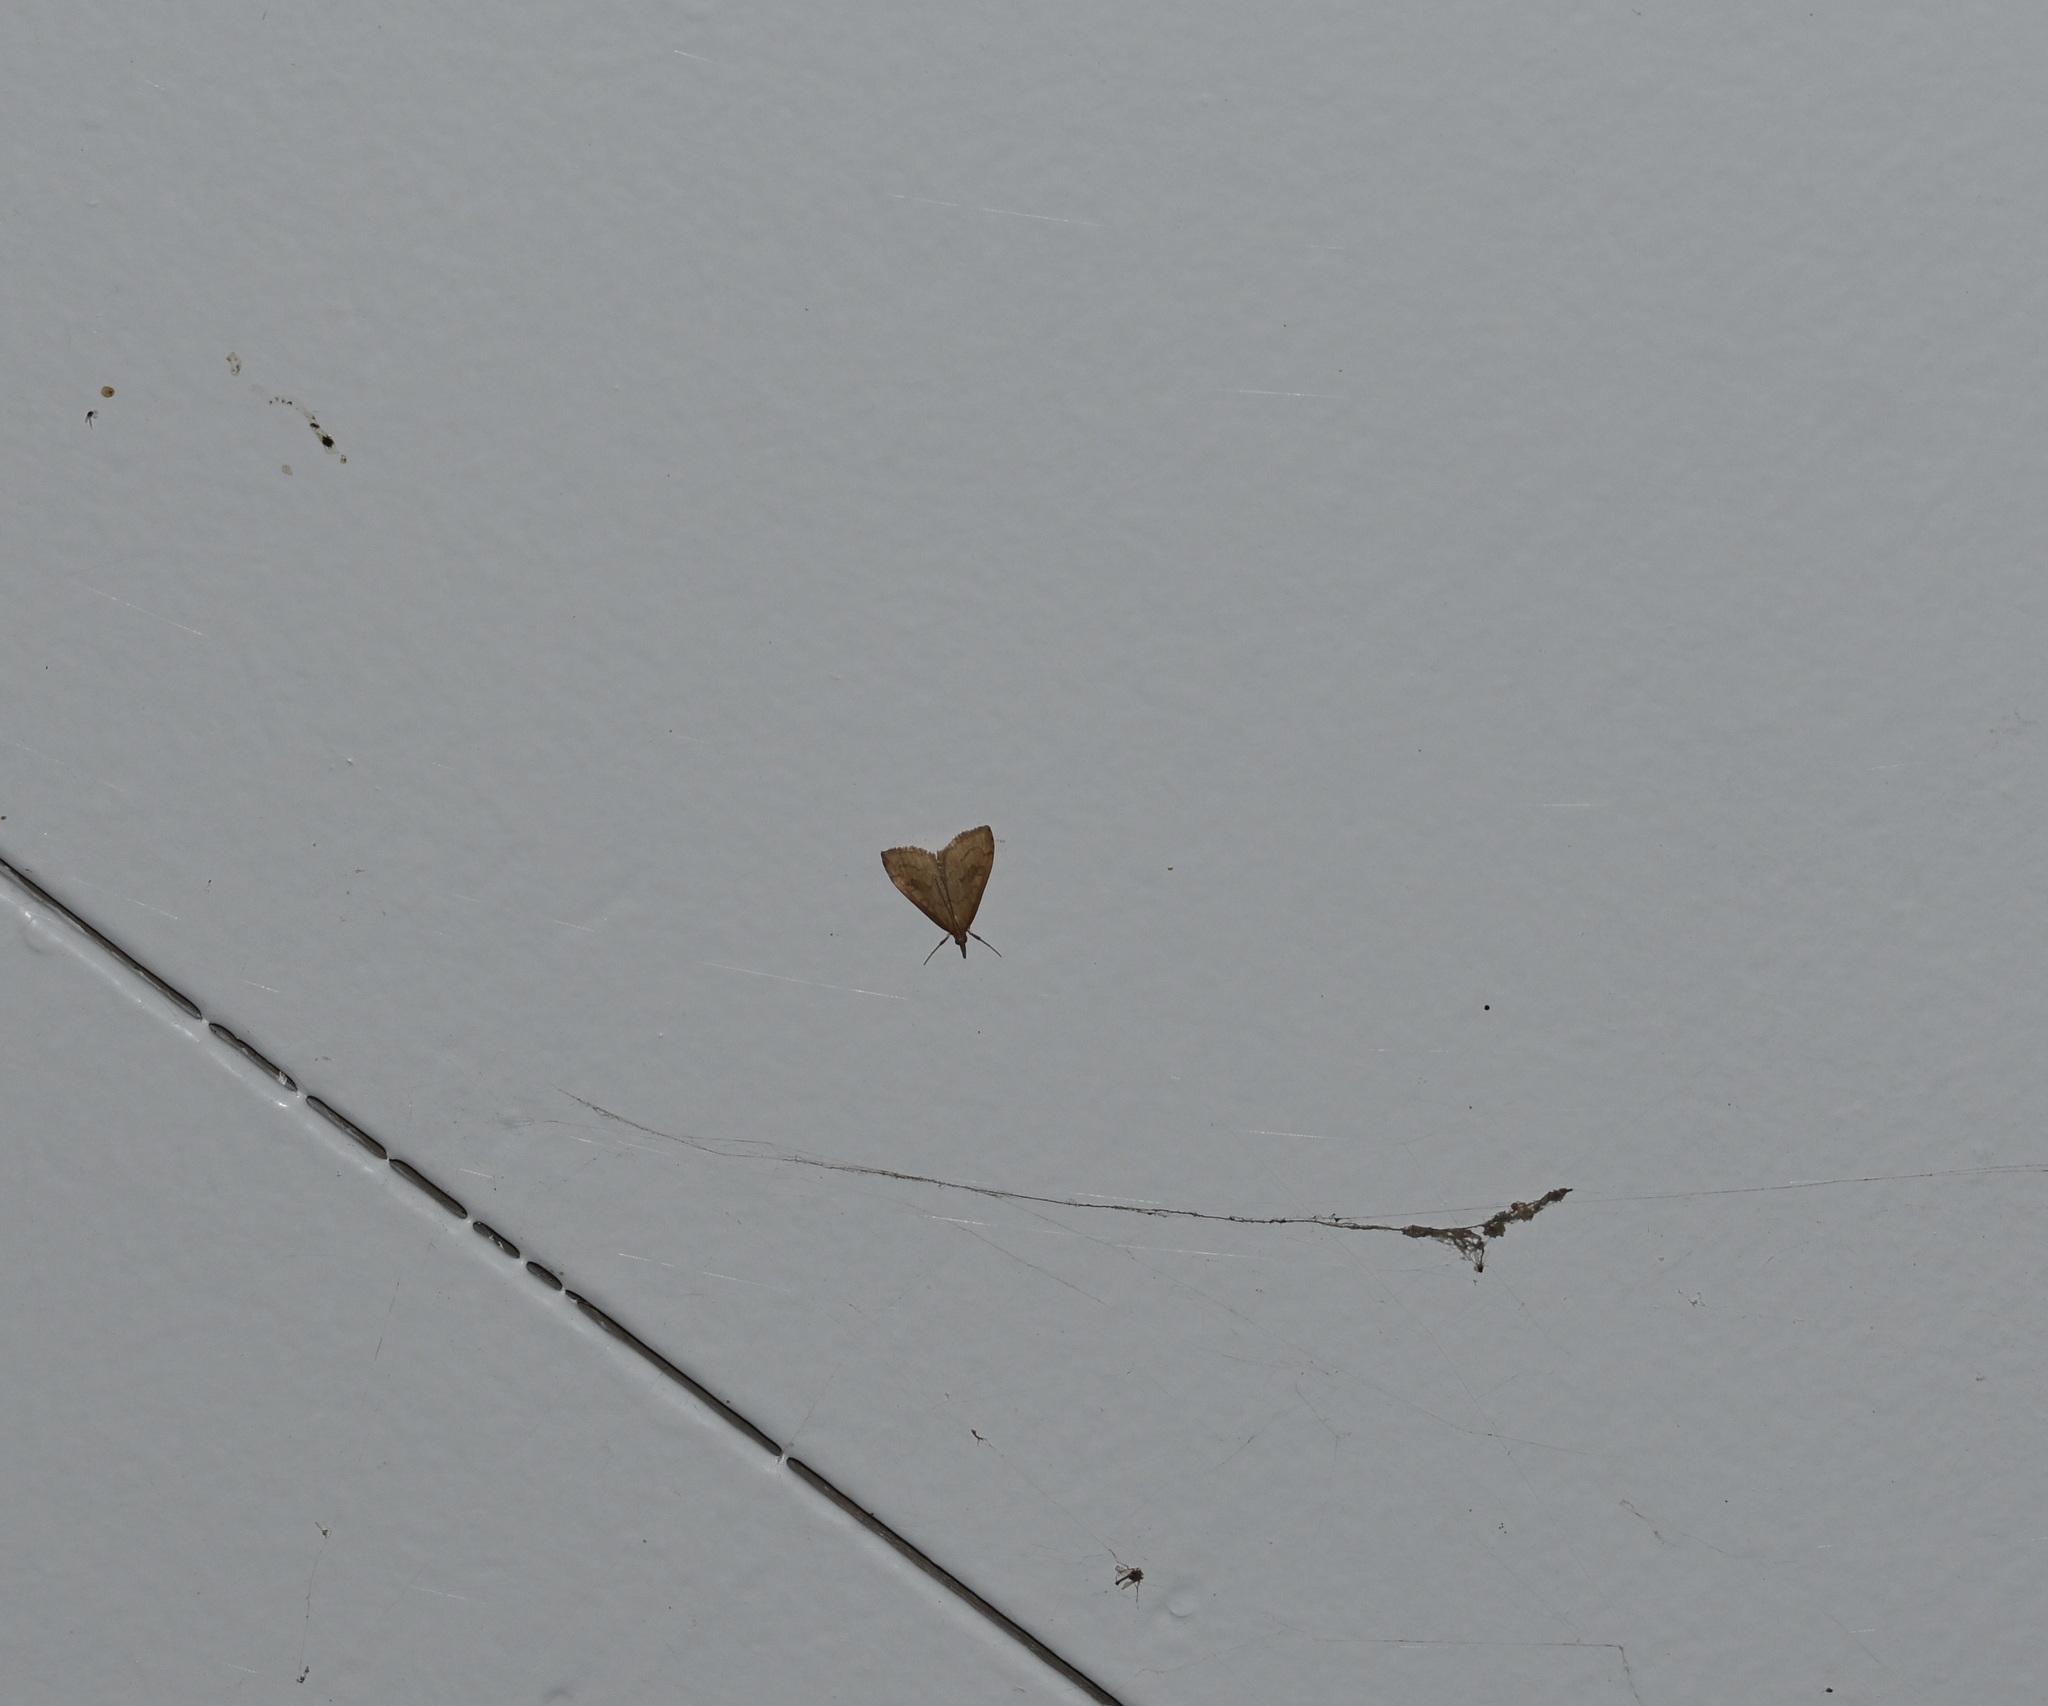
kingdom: Animalia
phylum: Arthropoda
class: Insecta
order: Lepidoptera
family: Crambidae
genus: Udea
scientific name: Udea profundalis
